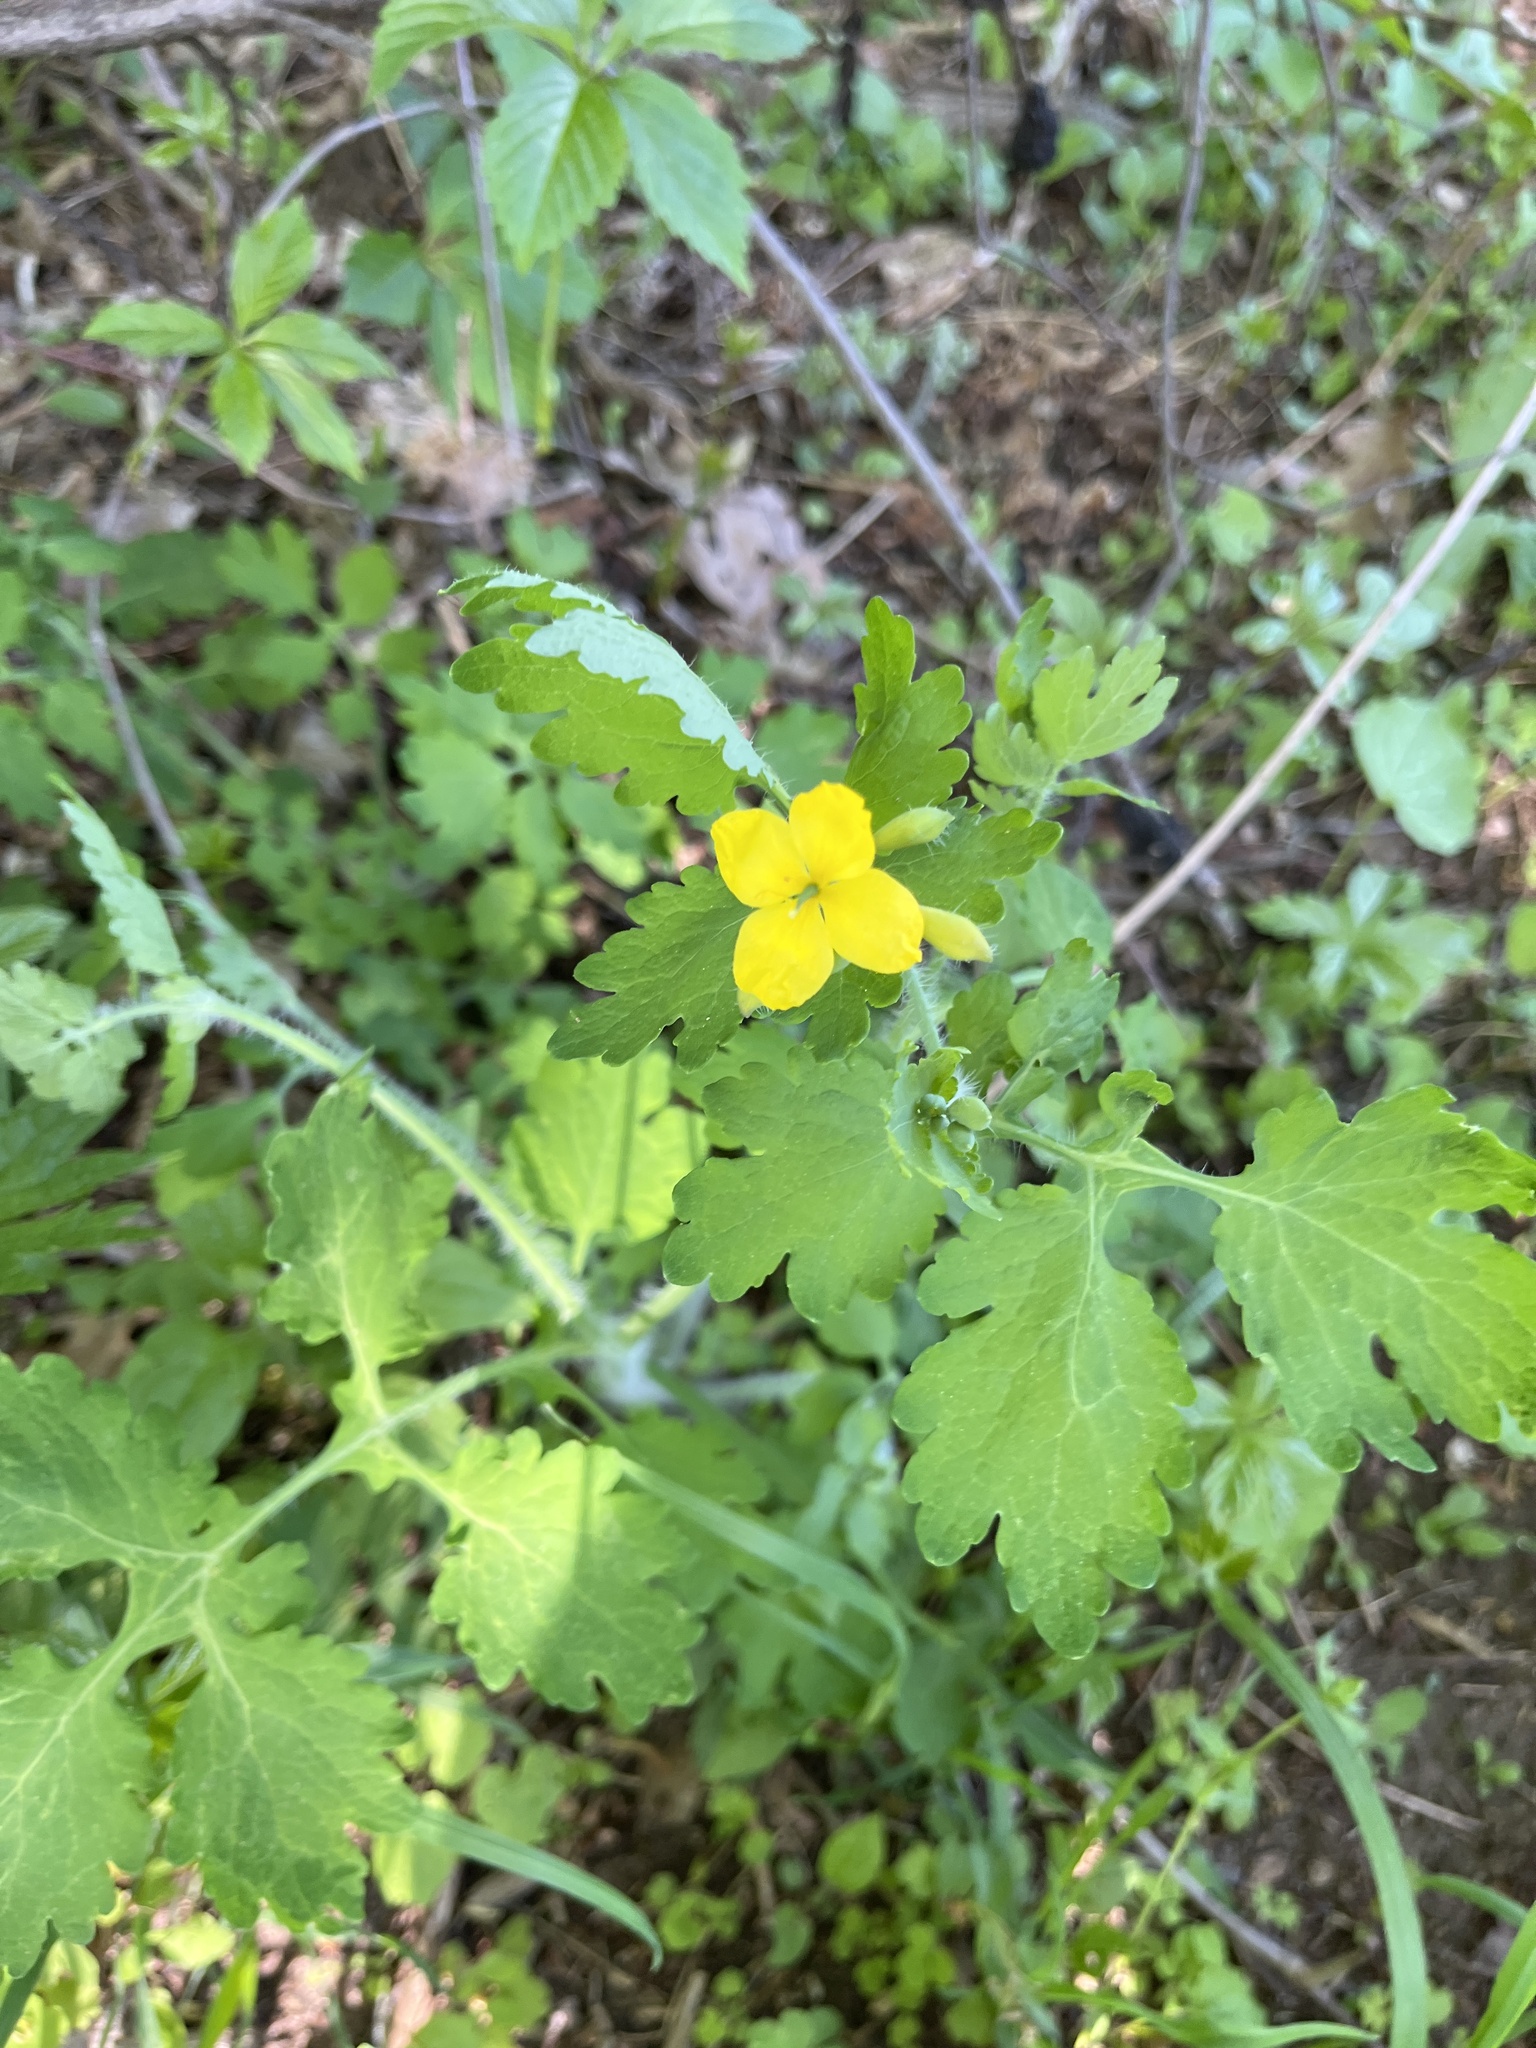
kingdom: Plantae
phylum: Tracheophyta
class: Magnoliopsida
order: Ranunculales
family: Papaveraceae
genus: Chelidonium
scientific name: Chelidonium majus
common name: Greater celandine
